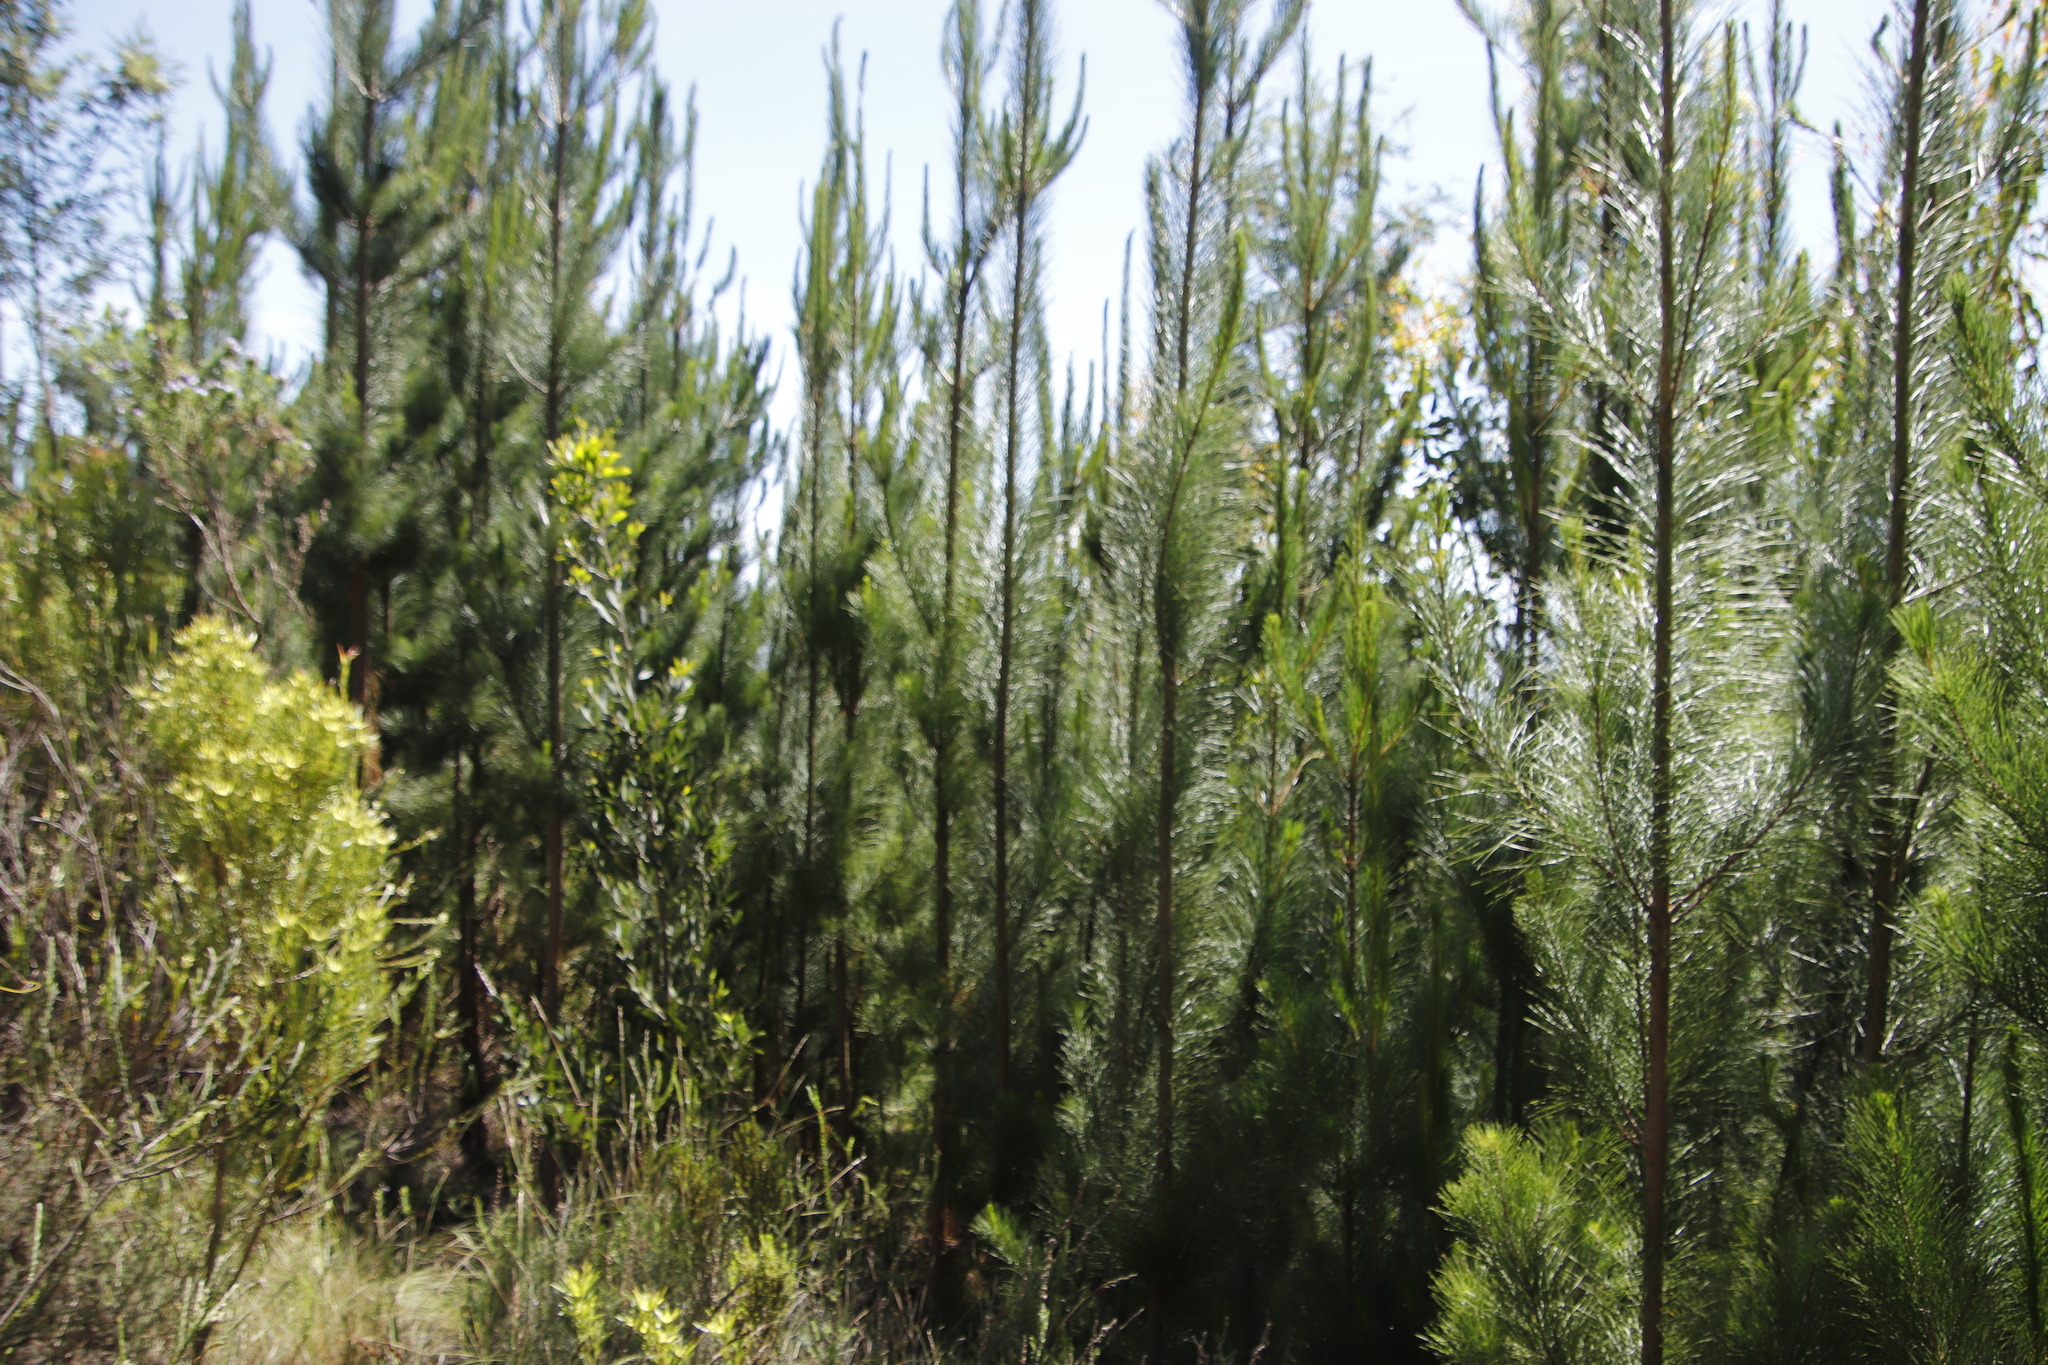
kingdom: Plantae
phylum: Tracheophyta
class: Pinopsida
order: Pinales
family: Pinaceae
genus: Pinus
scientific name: Pinus radiata
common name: Monterey pine
